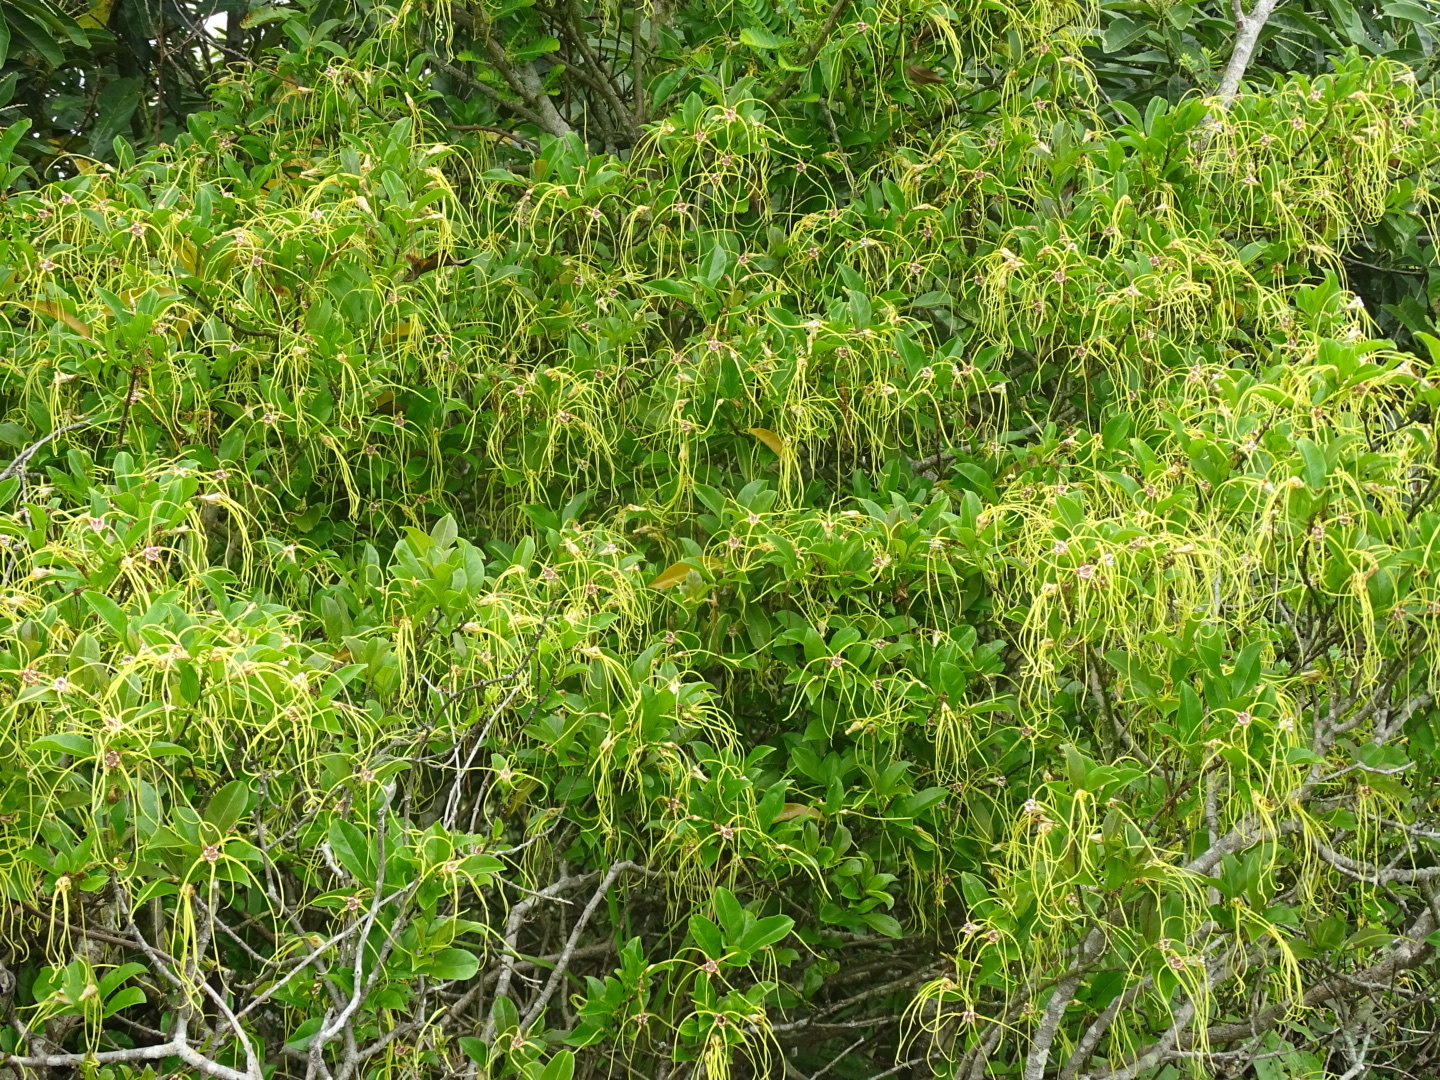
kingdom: Plantae
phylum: Tracheophyta
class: Magnoliopsida
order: Gentianales
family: Apocynaceae
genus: Strophanthus
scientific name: Strophanthus divaricatus
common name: Goat-horns
